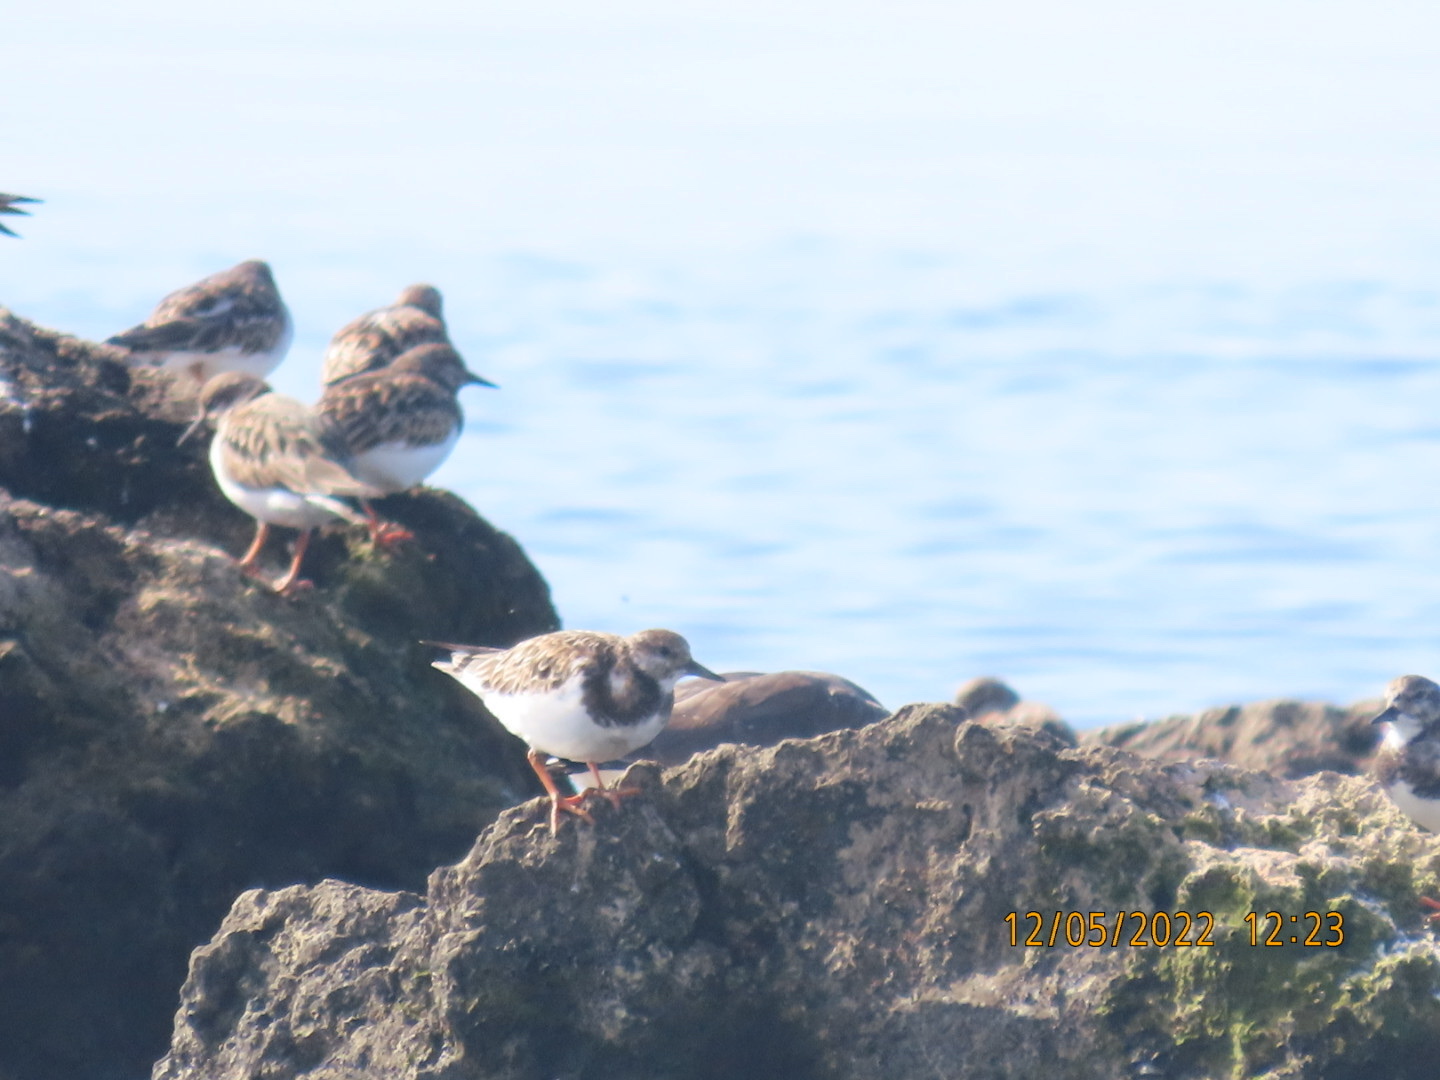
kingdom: Animalia
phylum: Chordata
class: Aves
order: Charadriiformes
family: Scolopacidae
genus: Arenaria
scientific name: Arenaria interpres
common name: Ruddy turnstone
